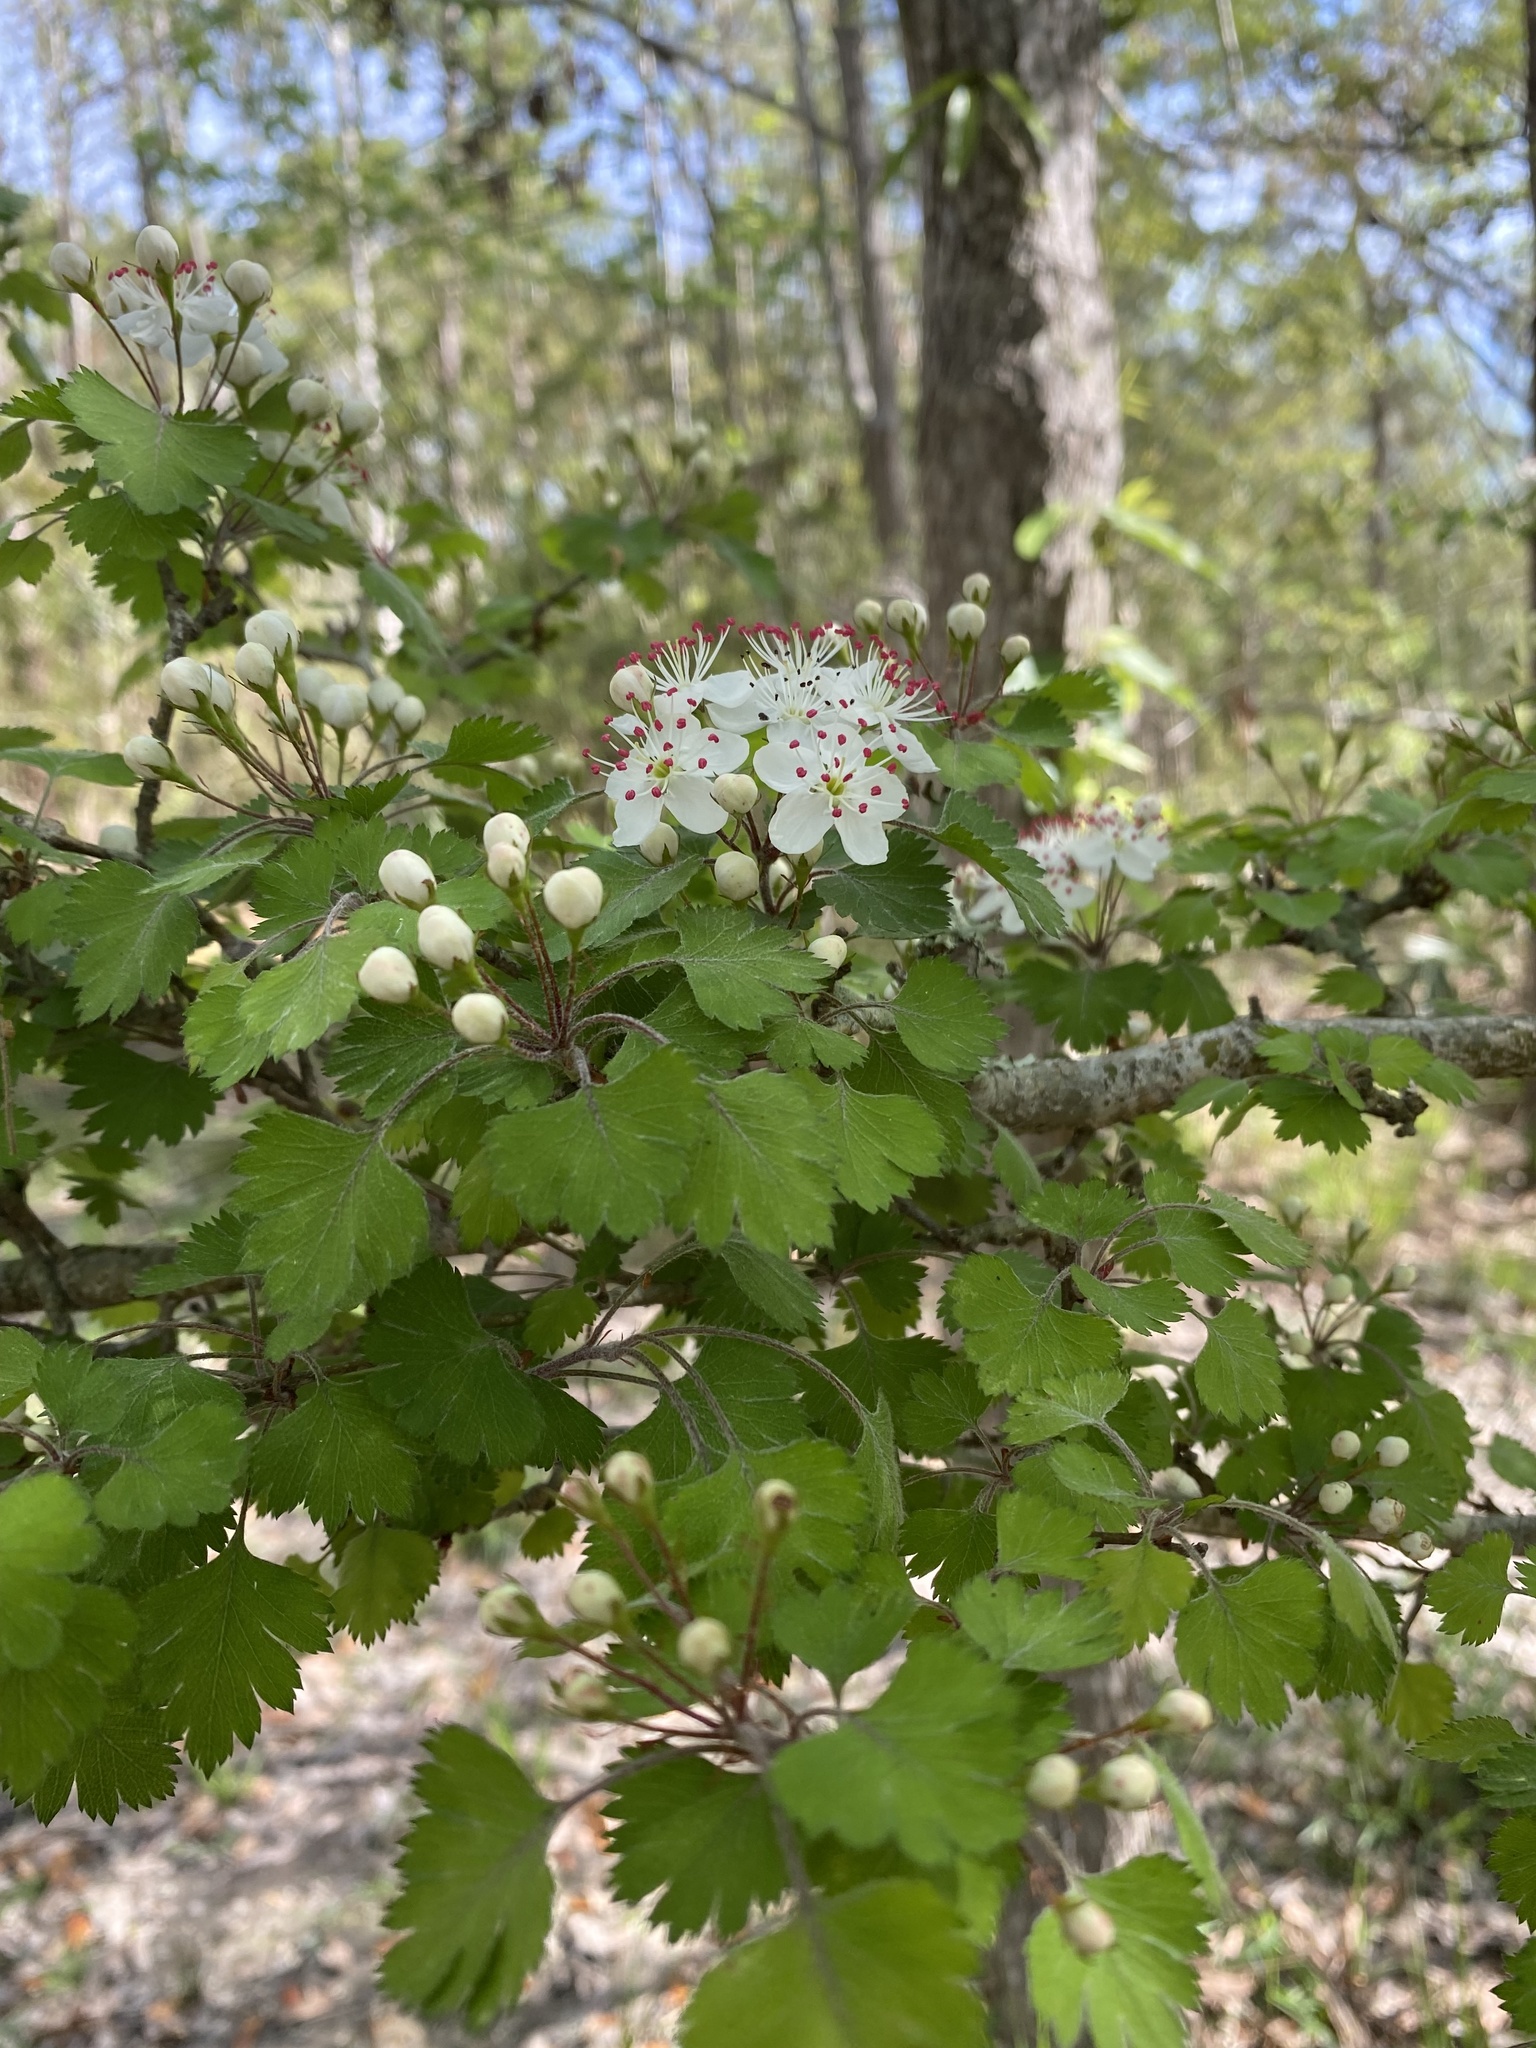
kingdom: Plantae
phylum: Tracheophyta
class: Magnoliopsida
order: Rosales
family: Rosaceae
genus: Crataegus
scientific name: Crataegus marshallii
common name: Parsley-hawthorn
